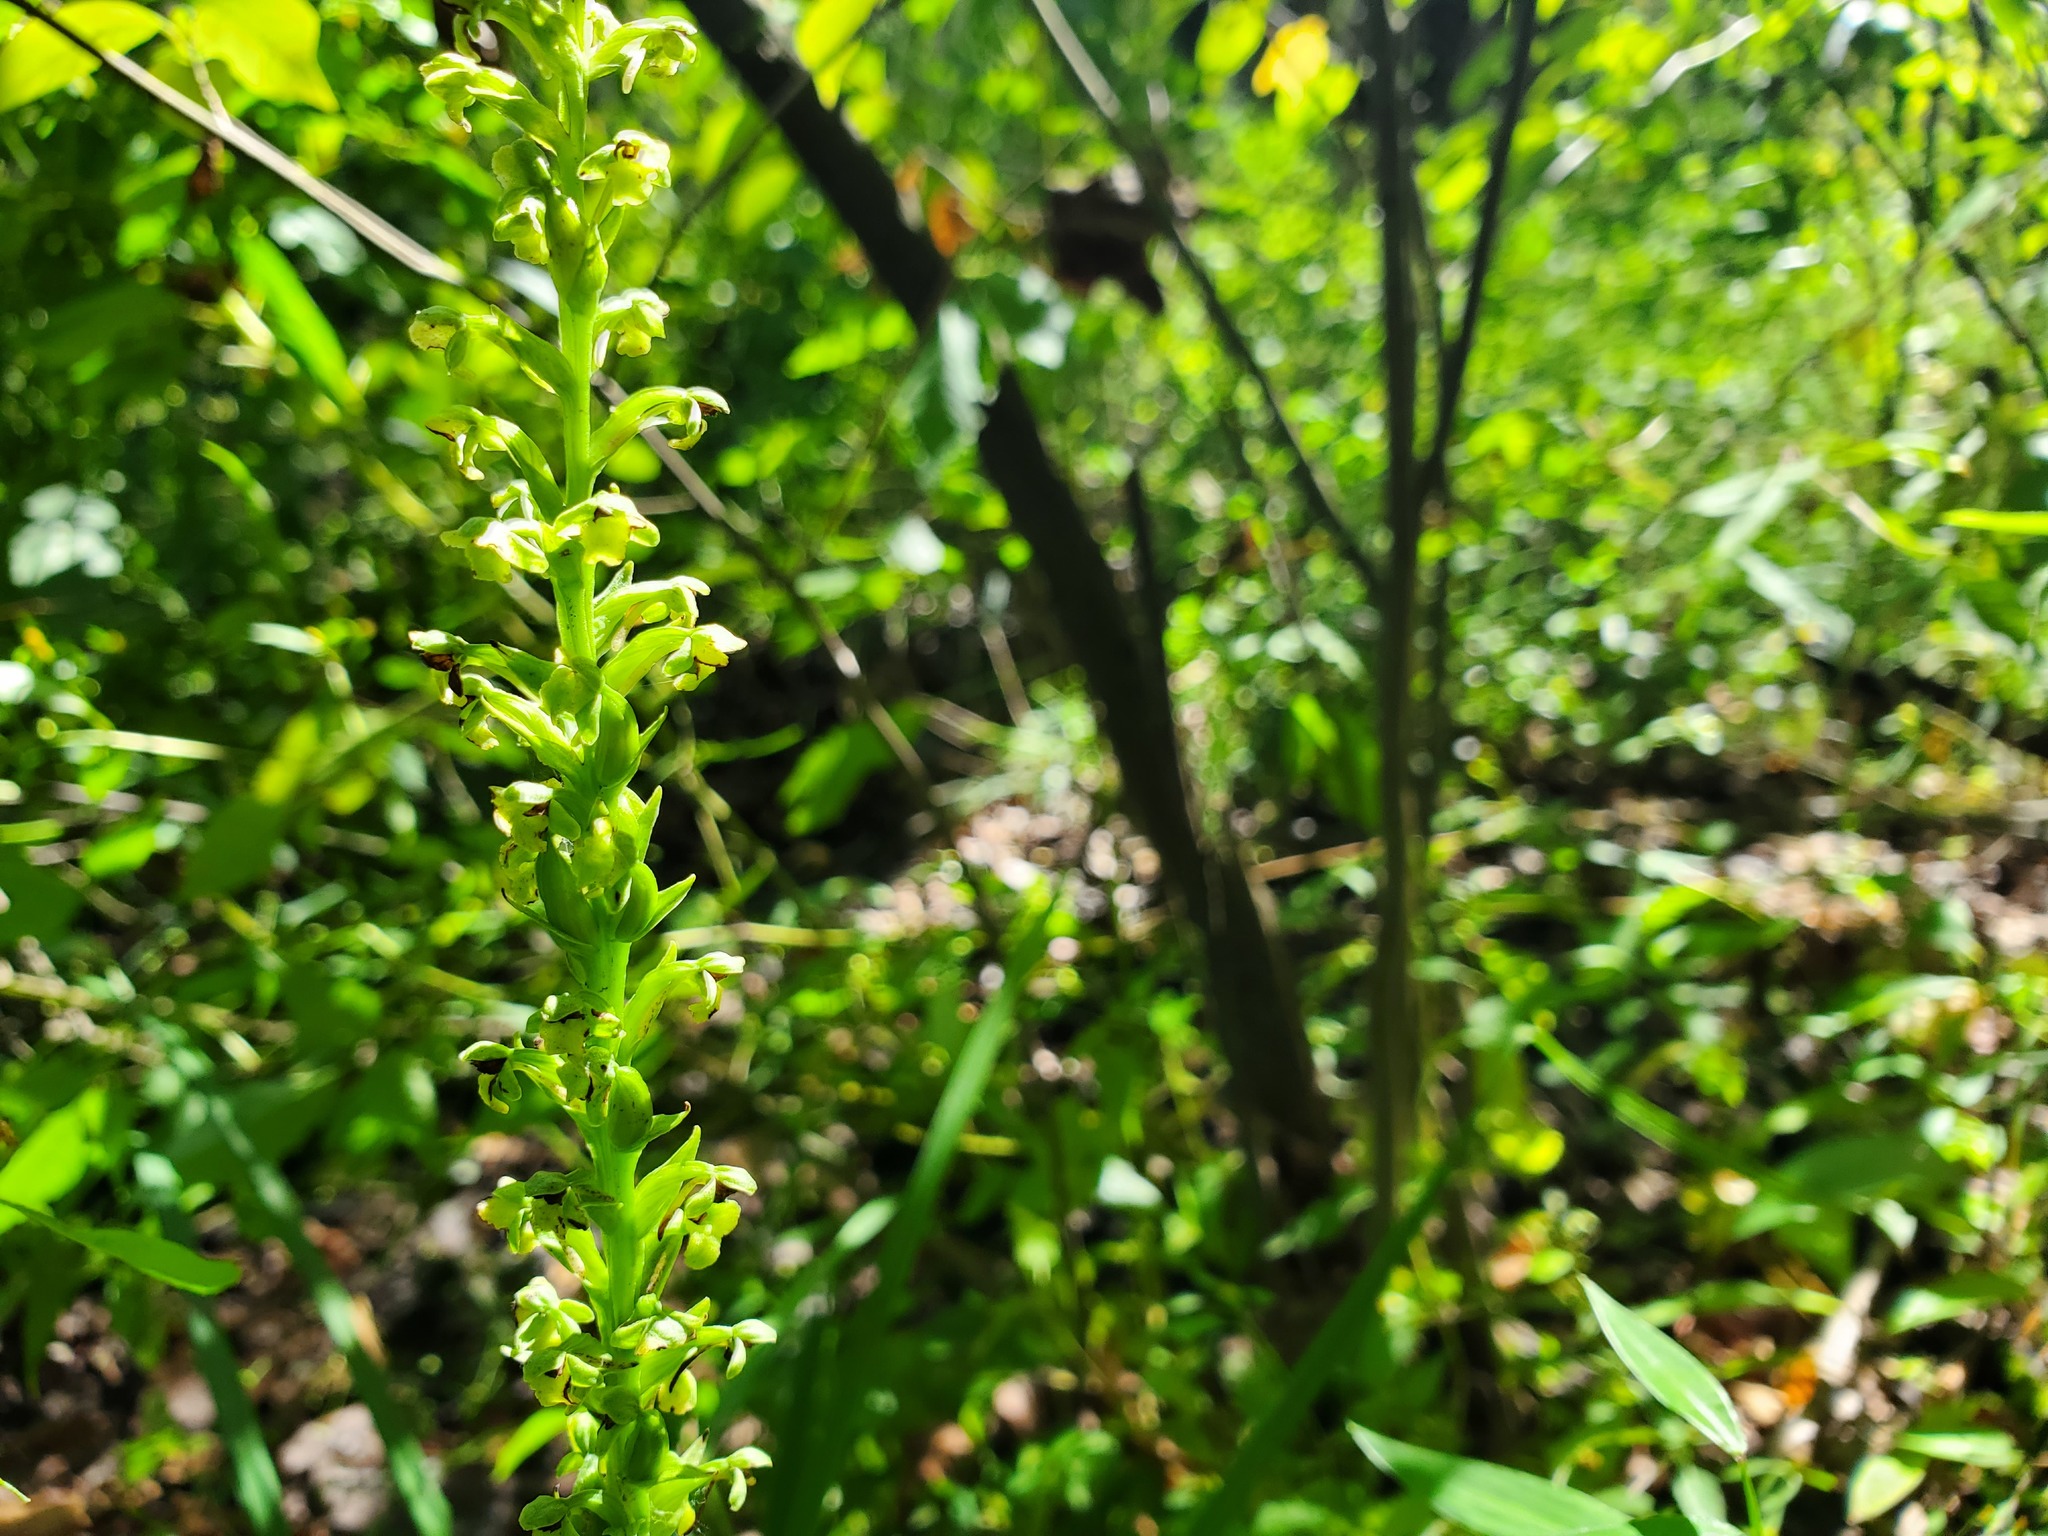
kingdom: Plantae
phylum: Tracheophyta
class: Liliopsida
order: Asparagales
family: Orchidaceae
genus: Platanthera
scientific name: Platanthera flava
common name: Gypsy-spikes
